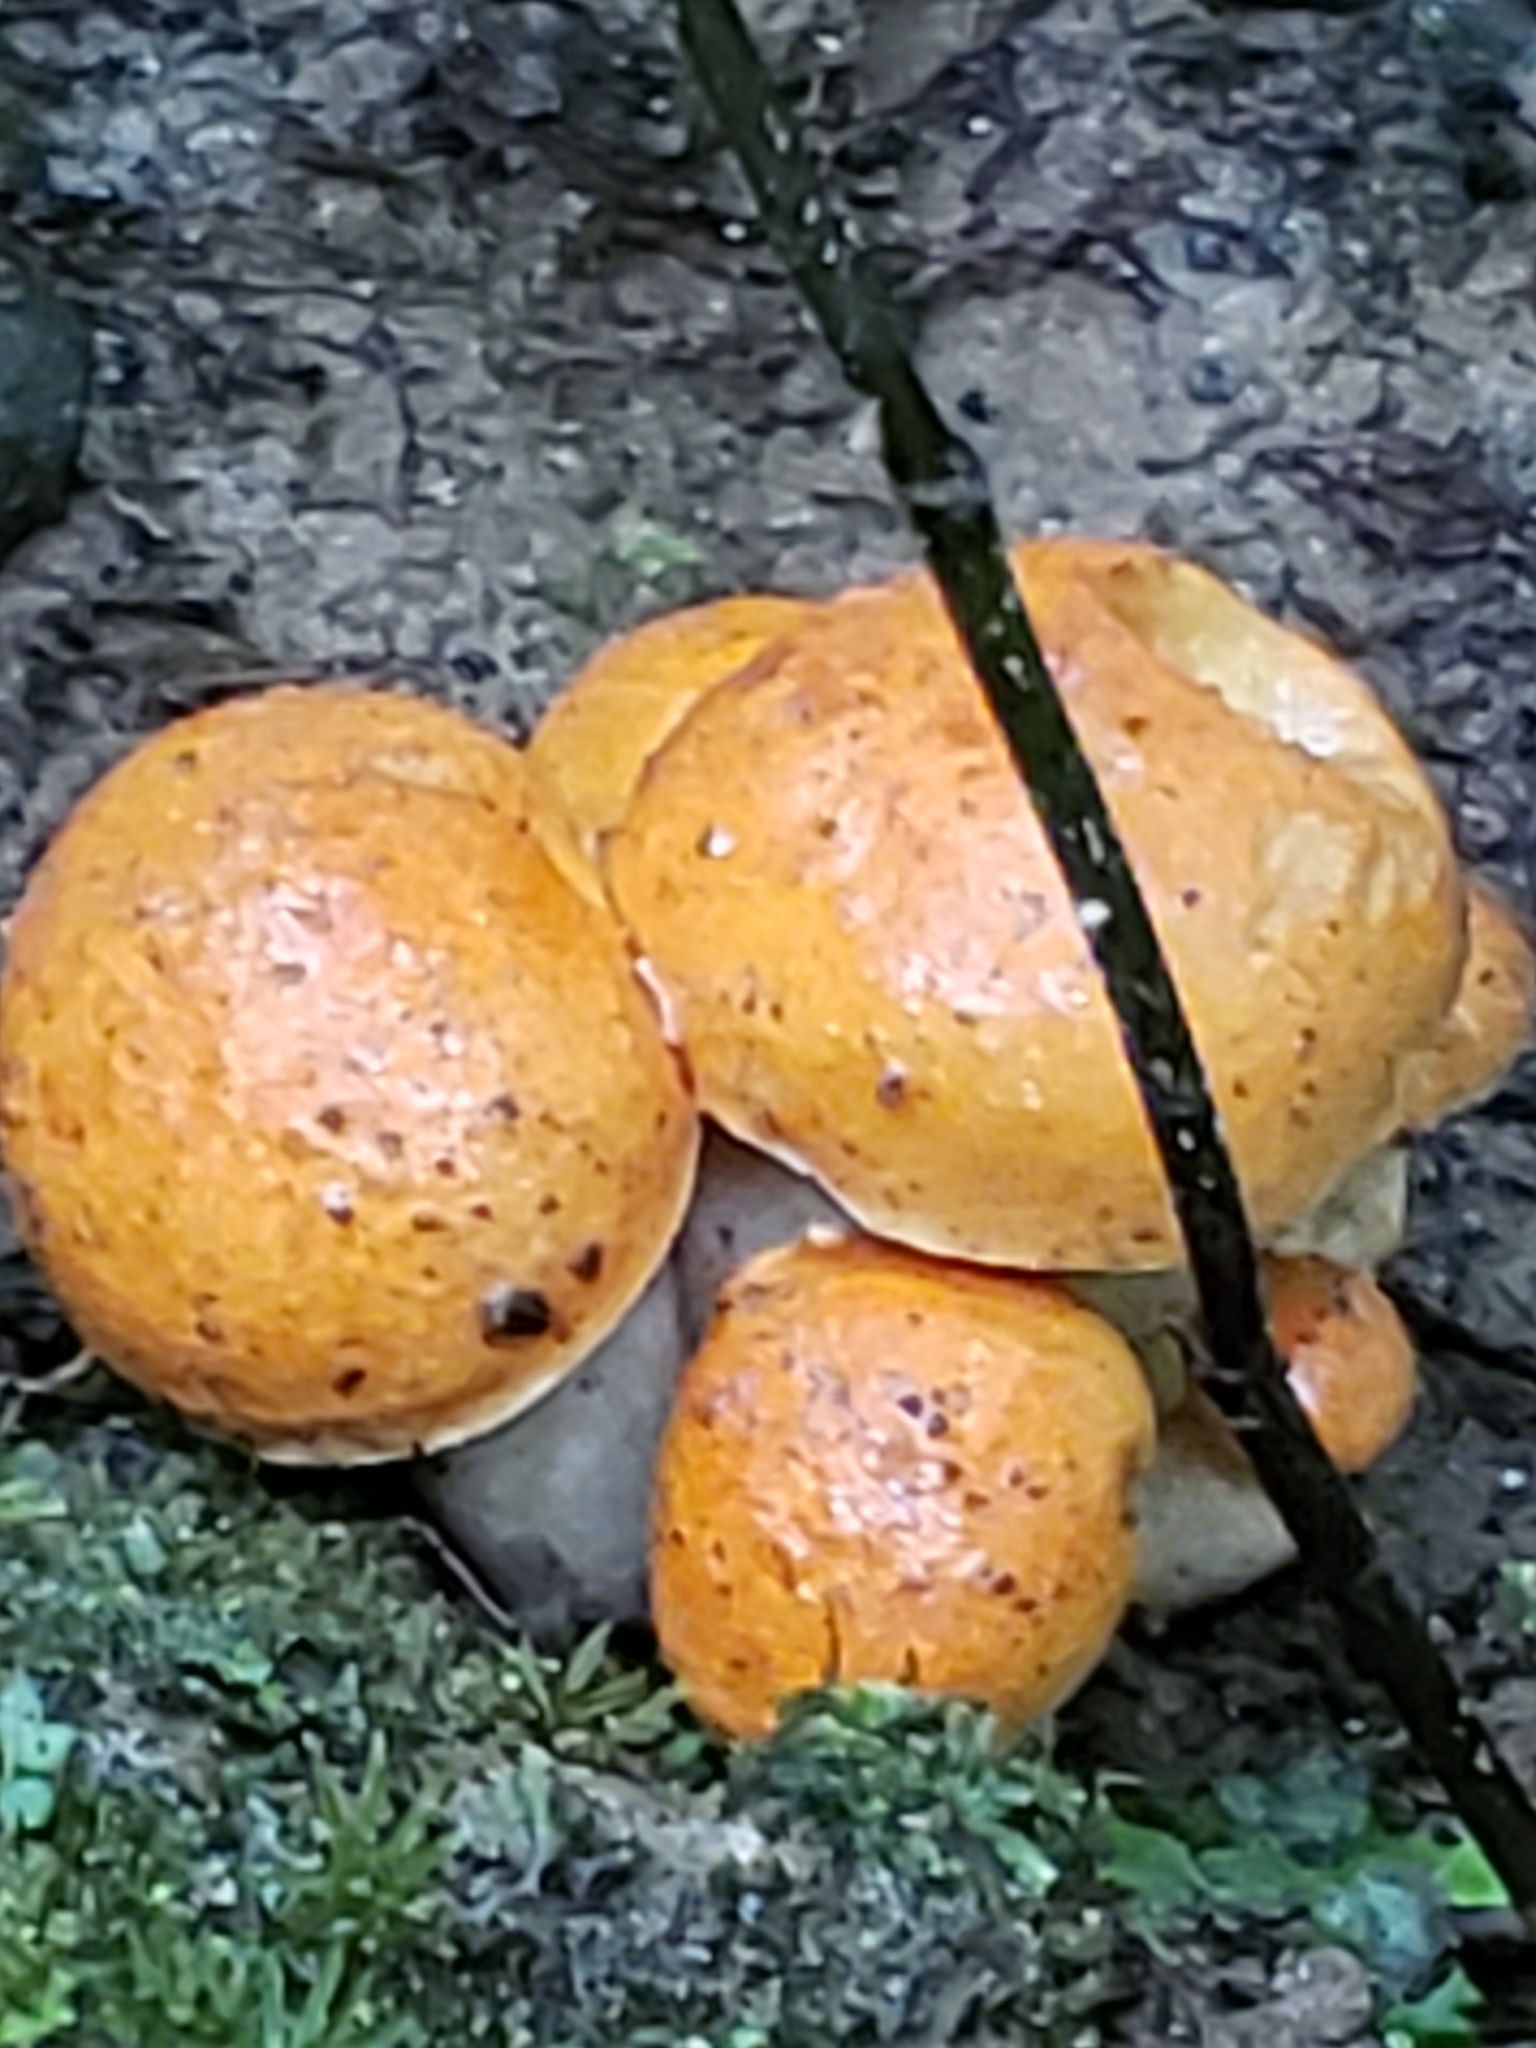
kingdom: Fungi
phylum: Basidiomycota
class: Agaricomycetes
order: Boletales
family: Boletaceae
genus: Tylopilus
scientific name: Tylopilus balloui
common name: Burnt-orange bolete
